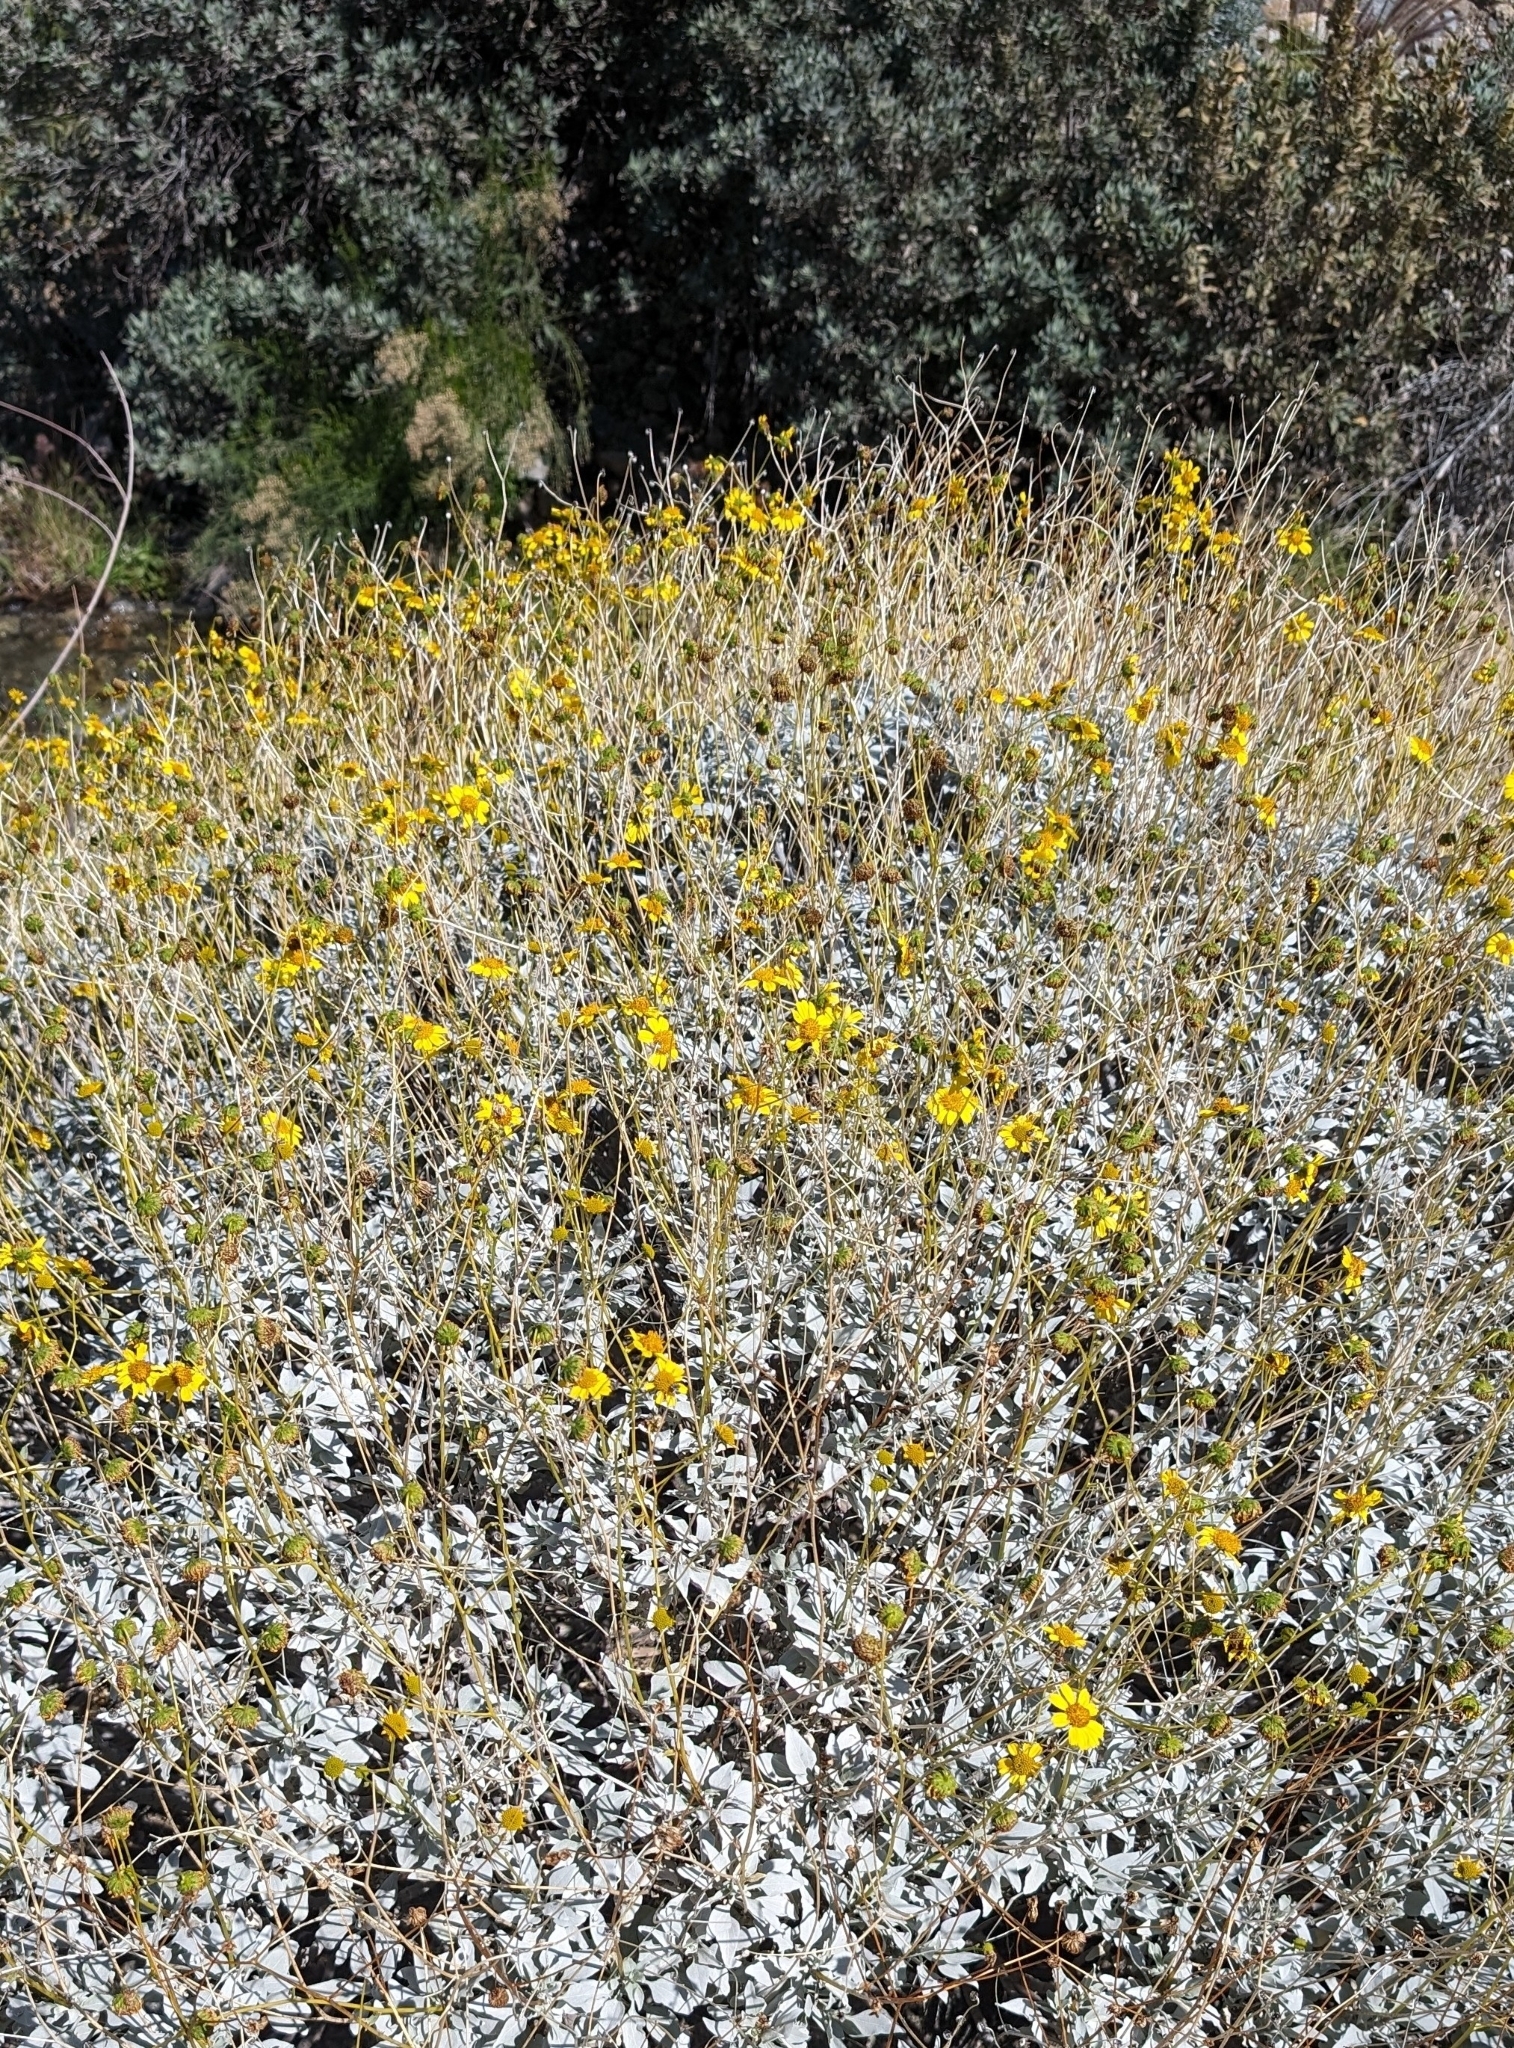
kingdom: Plantae
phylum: Tracheophyta
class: Magnoliopsida
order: Asterales
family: Asteraceae
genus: Encelia
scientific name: Encelia farinosa
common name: Brittlebush
